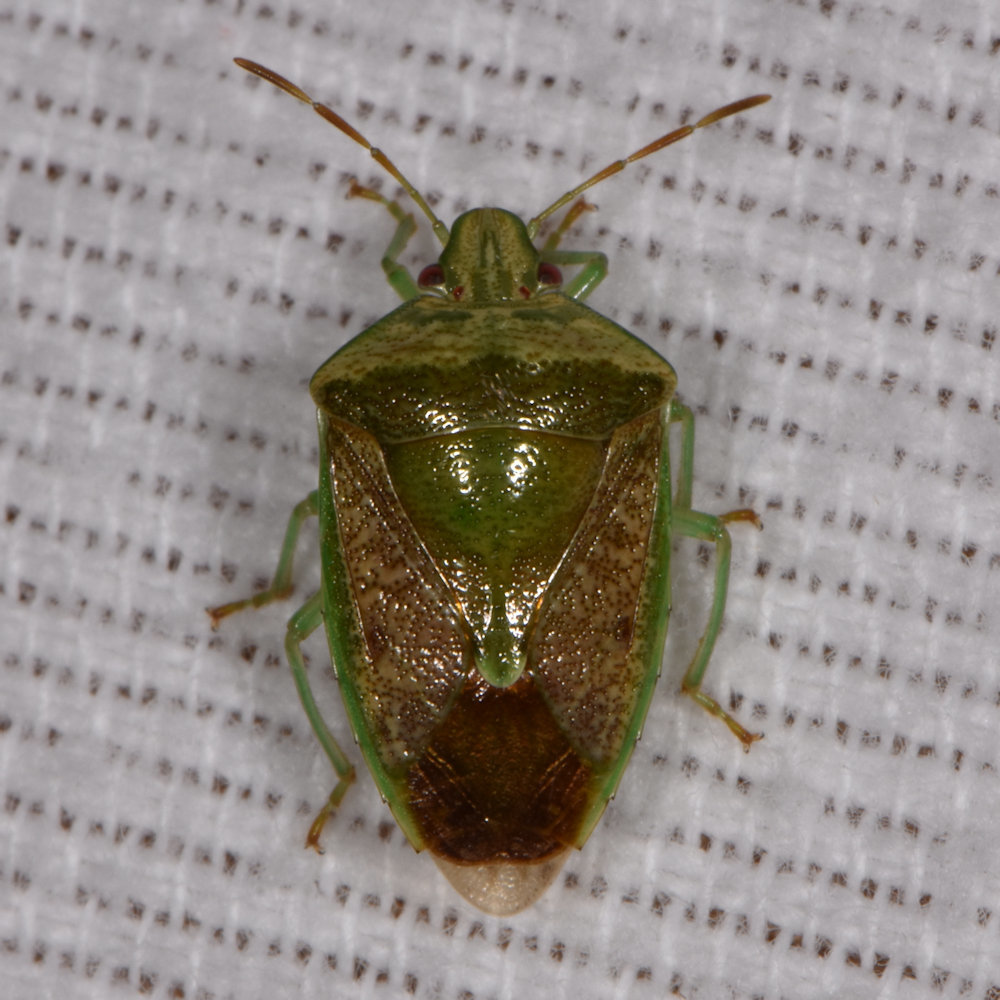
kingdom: Animalia
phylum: Arthropoda
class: Insecta
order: Hemiptera
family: Pentatomidae
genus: Banasa
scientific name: Banasa dimidiata
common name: Green burgundy stink bug
